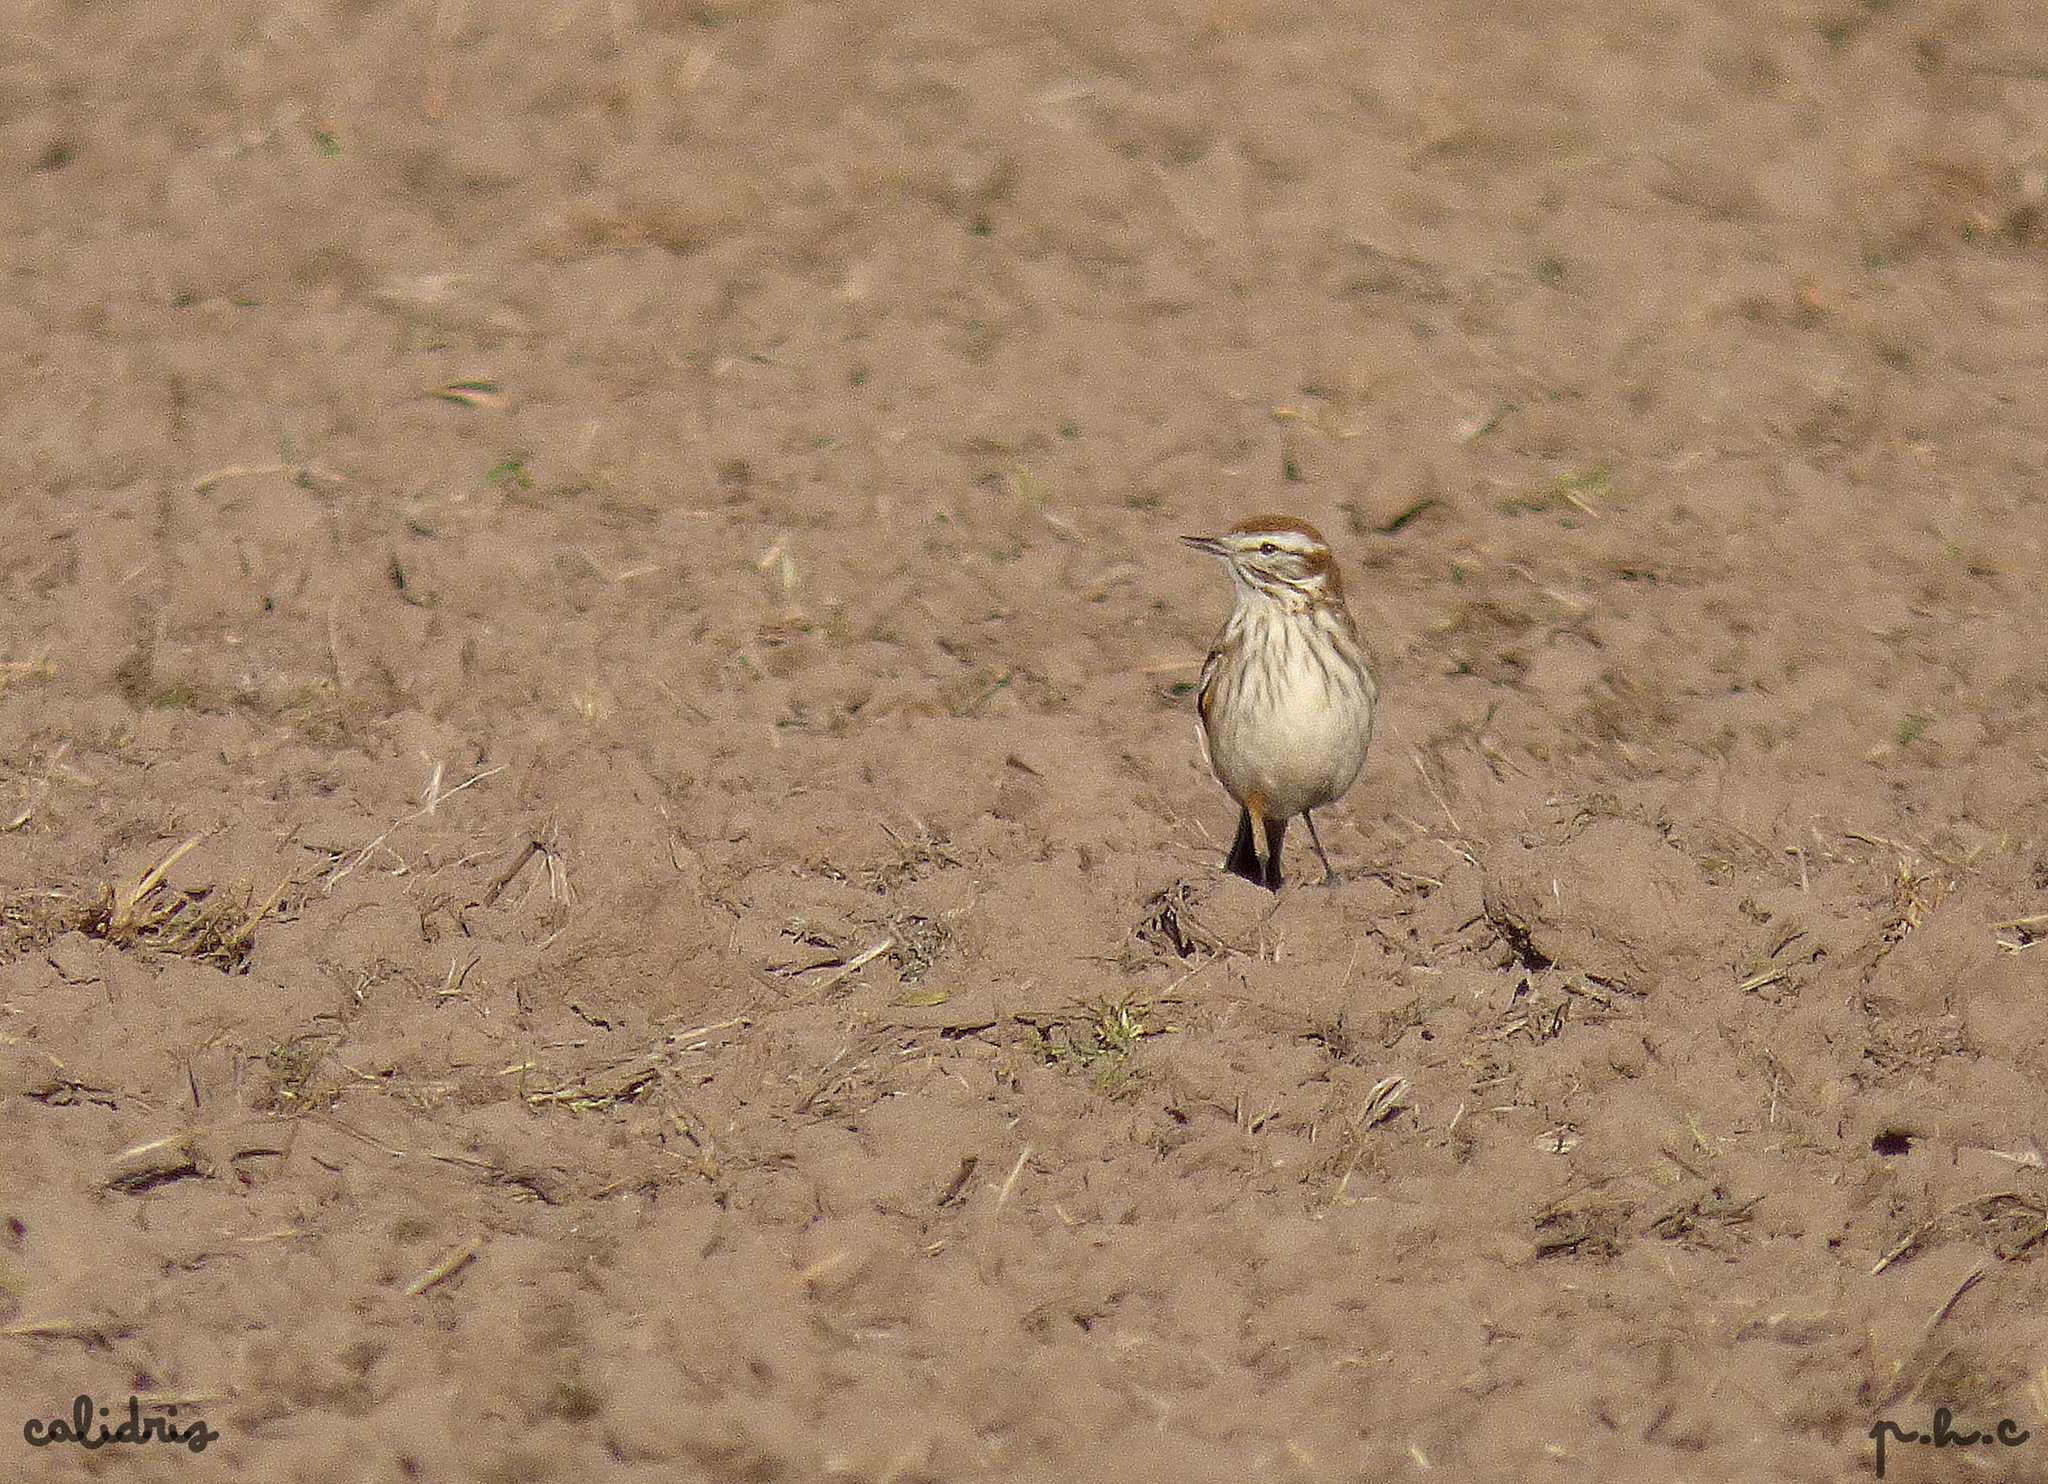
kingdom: Animalia
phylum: Chordata
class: Aves
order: Passeriformes
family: Tyrannidae
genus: Xolmis
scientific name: Xolmis rubetra
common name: Rusty-backed monjita
